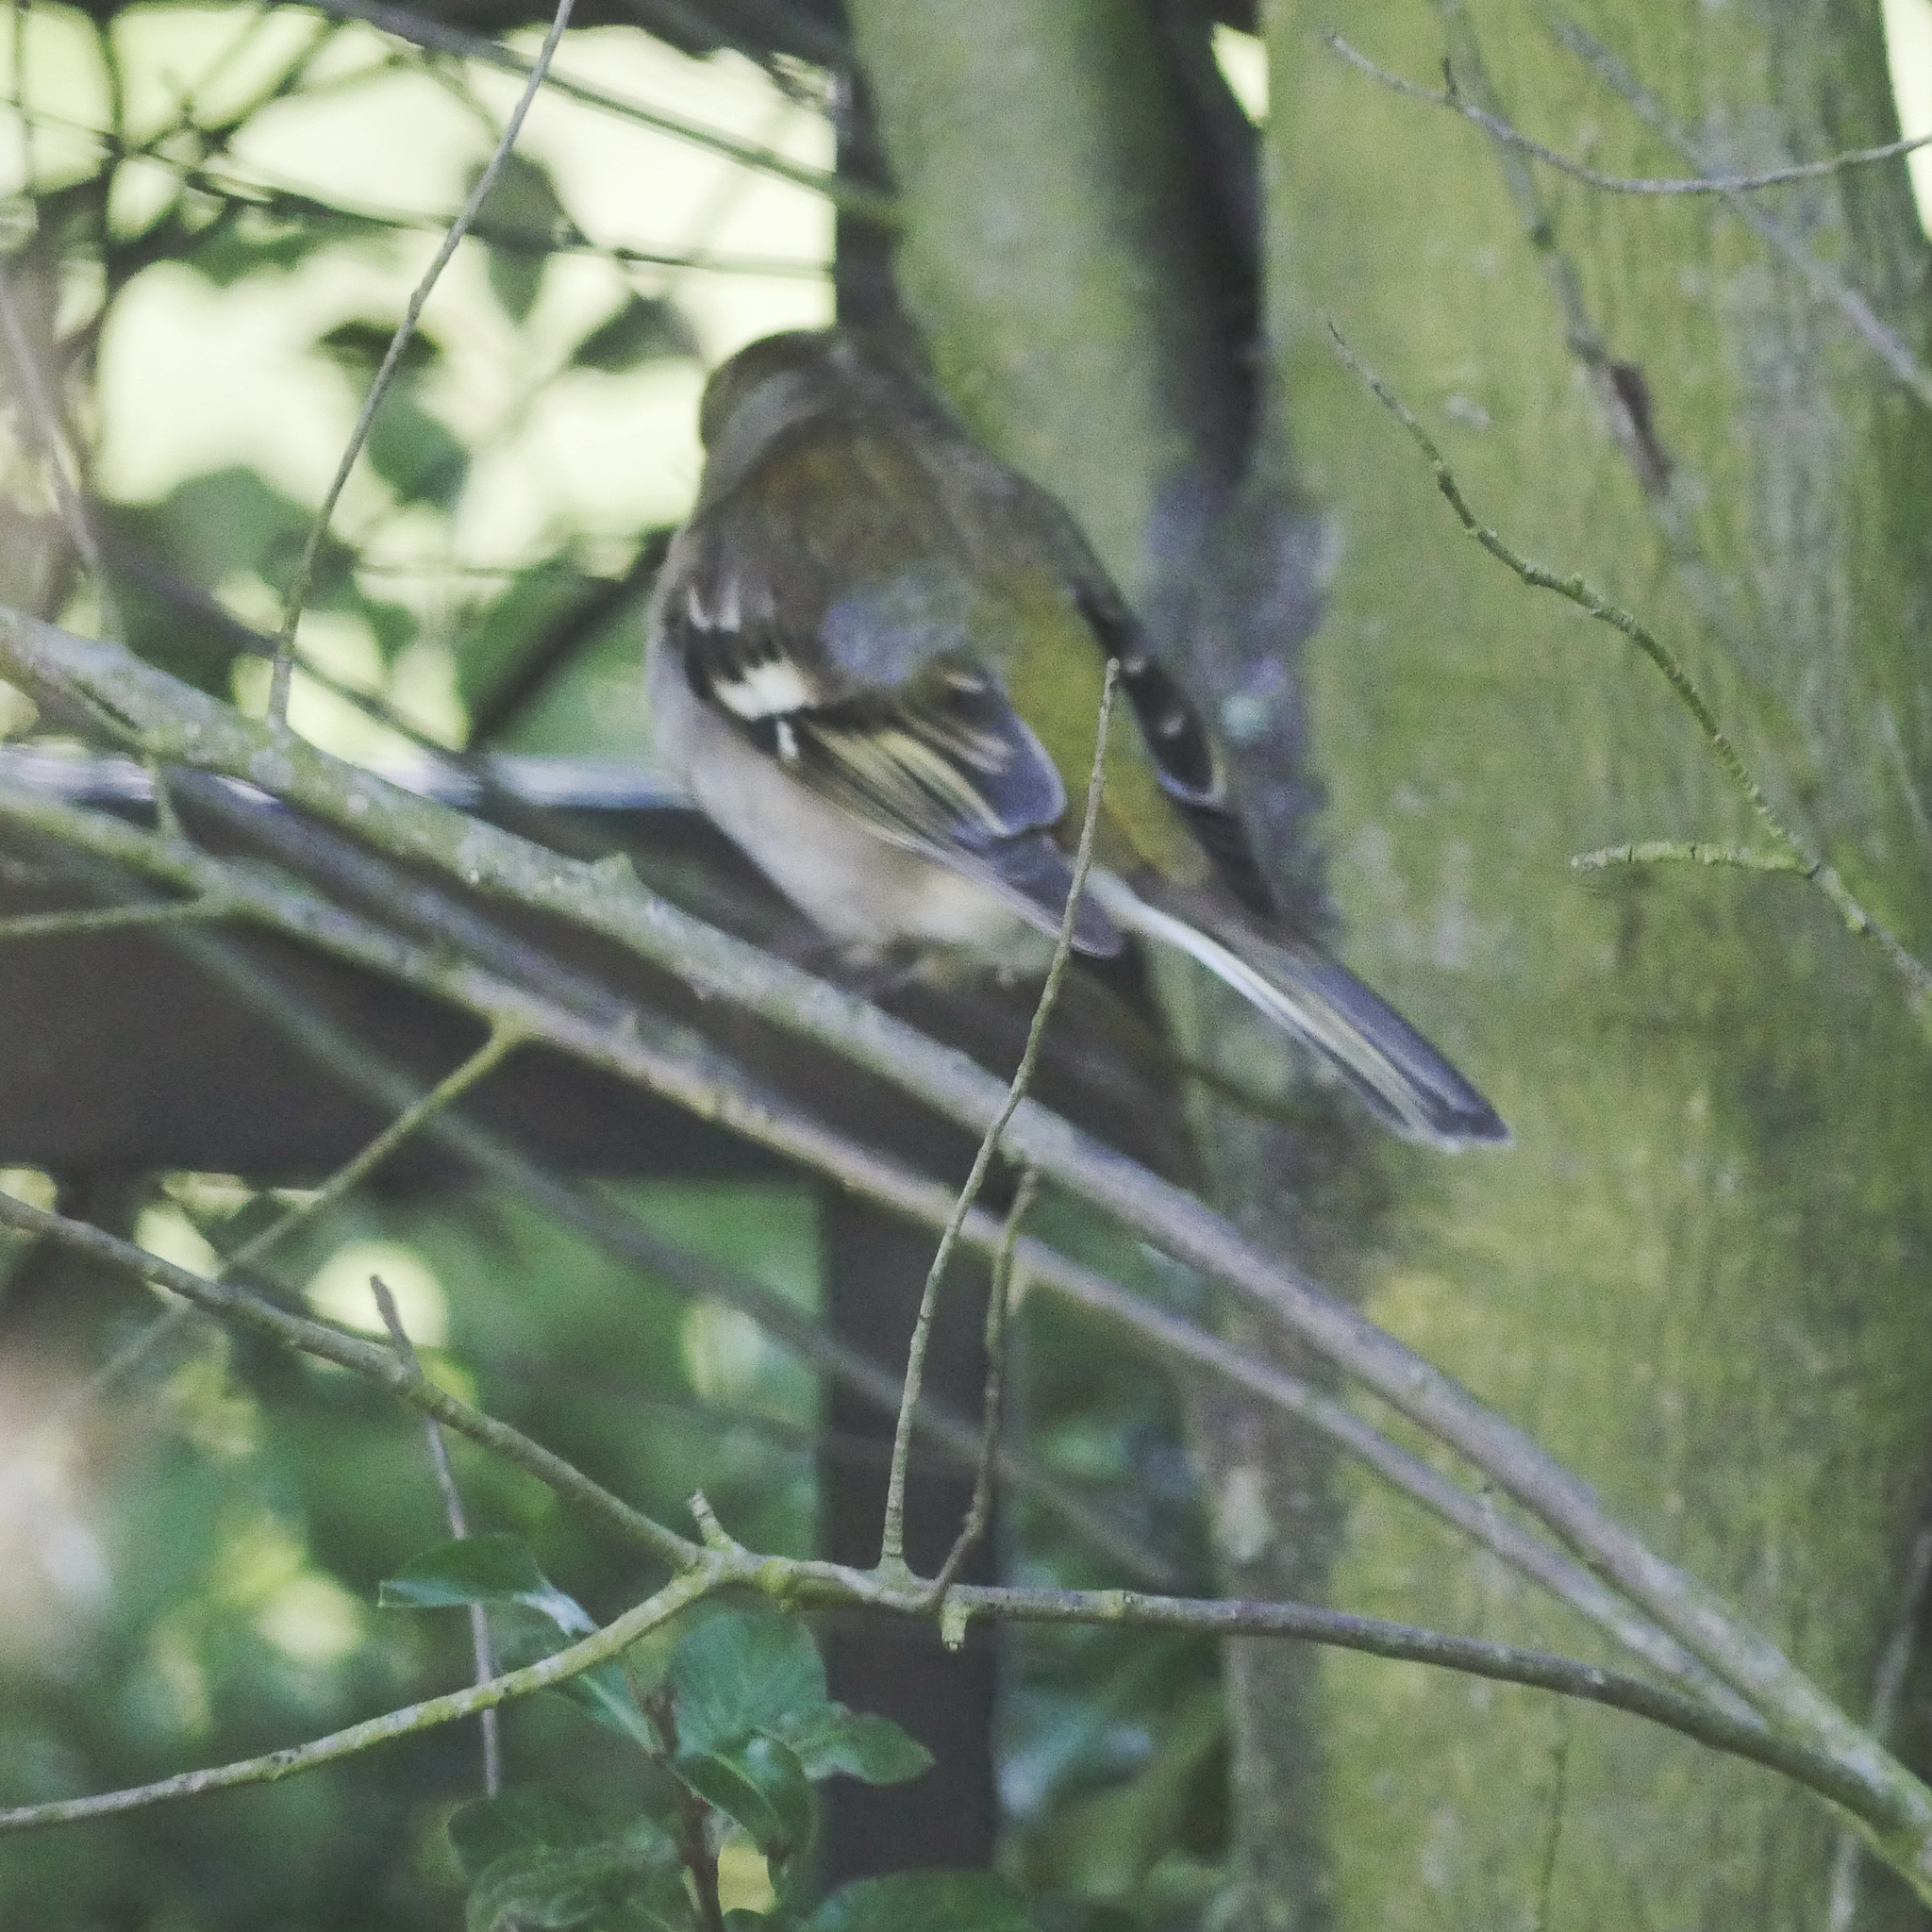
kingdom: Animalia
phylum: Chordata
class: Aves
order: Passeriformes
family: Fringillidae
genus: Fringilla
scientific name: Fringilla coelebs
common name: Common chaffinch
